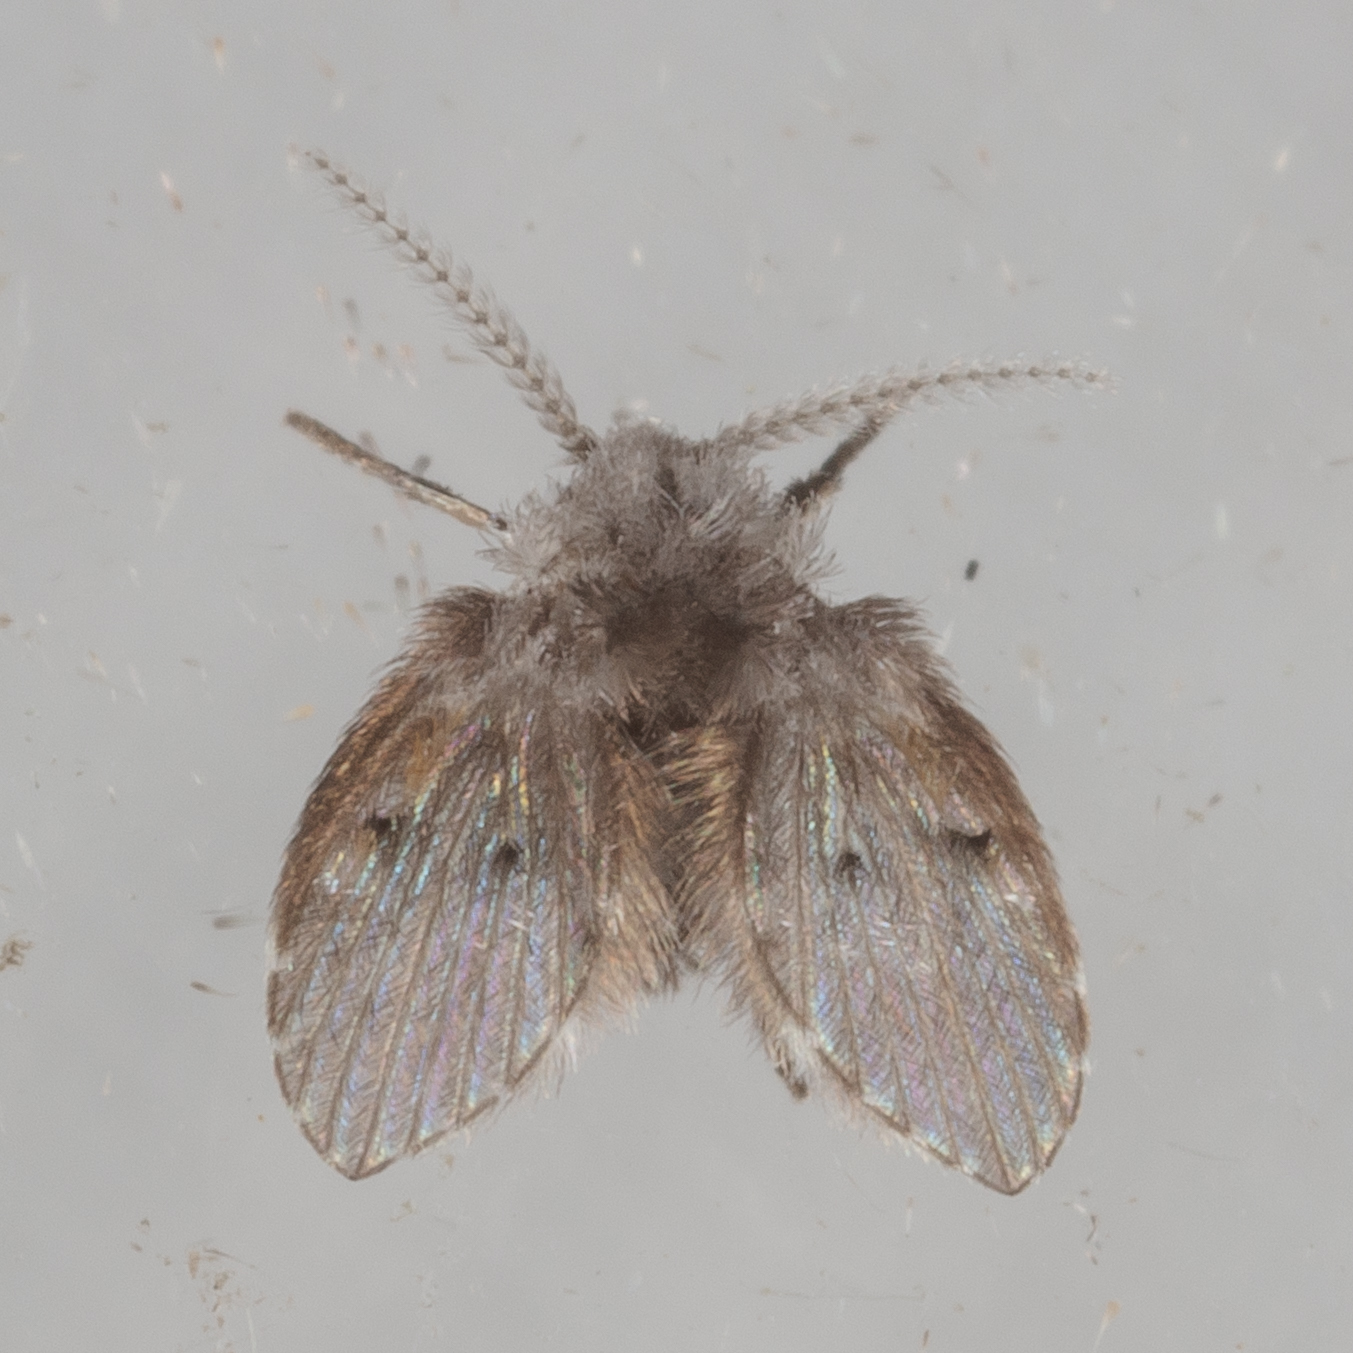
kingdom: Animalia
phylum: Arthropoda
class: Insecta
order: Diptera
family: Psychodidae
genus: Clogmia
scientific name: Clogmia albipunctatus
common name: White-spotted moth fly
